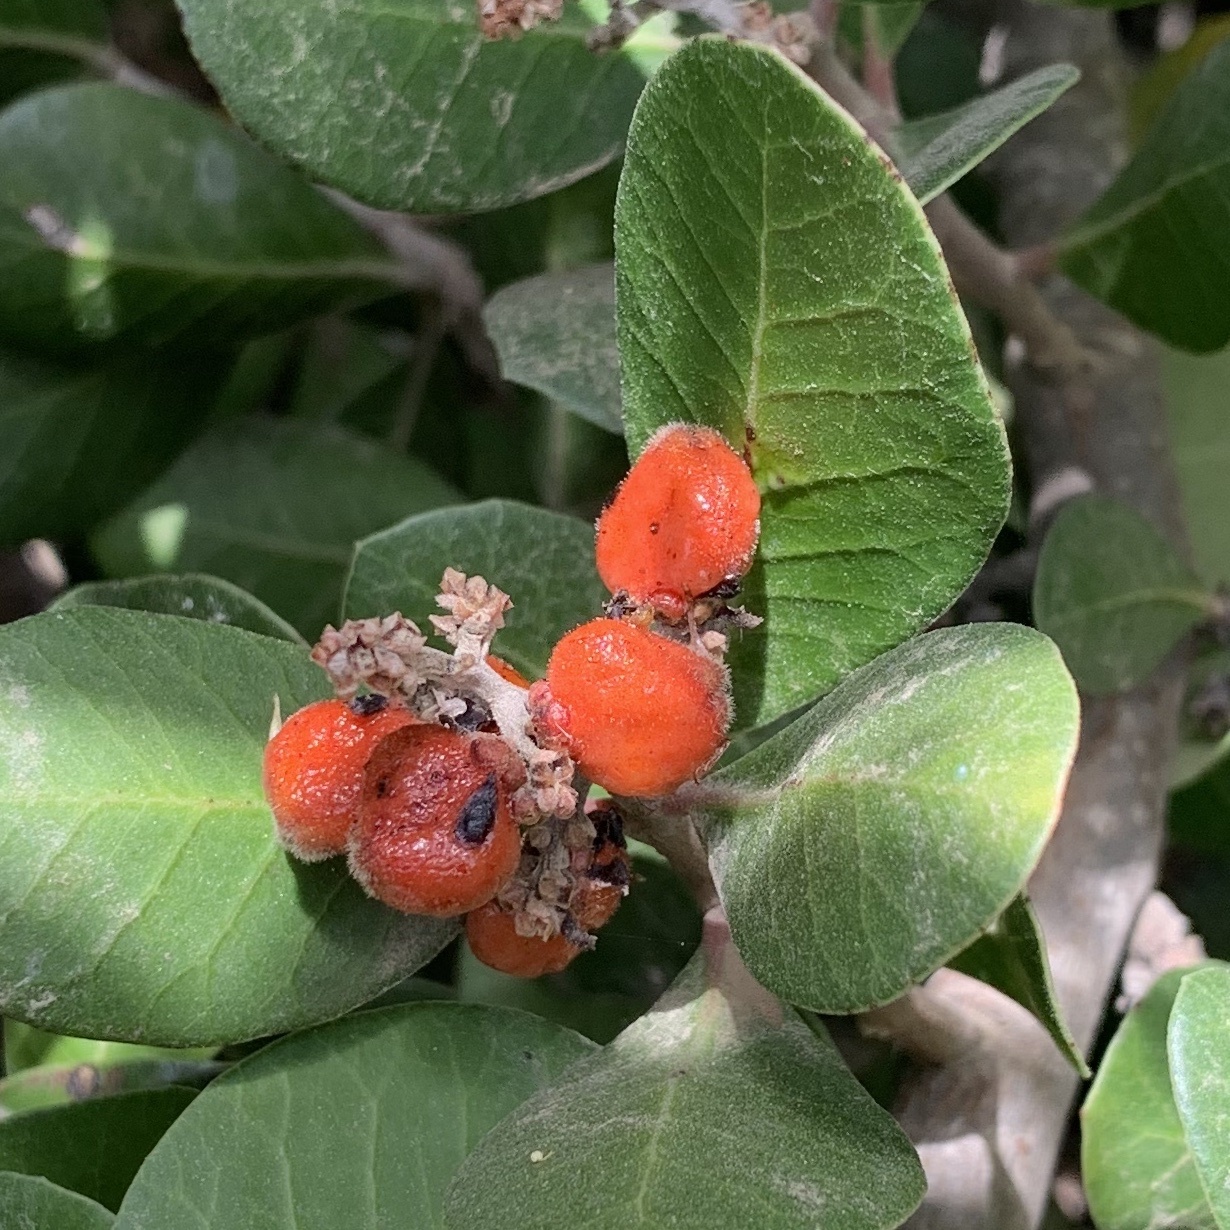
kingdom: Plantae
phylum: Tracheophyta
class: Magnoliopsida
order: Sapindales
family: Anacardiaceae
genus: Rhus
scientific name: Rhus integrifolia
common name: Lemonade sumac
